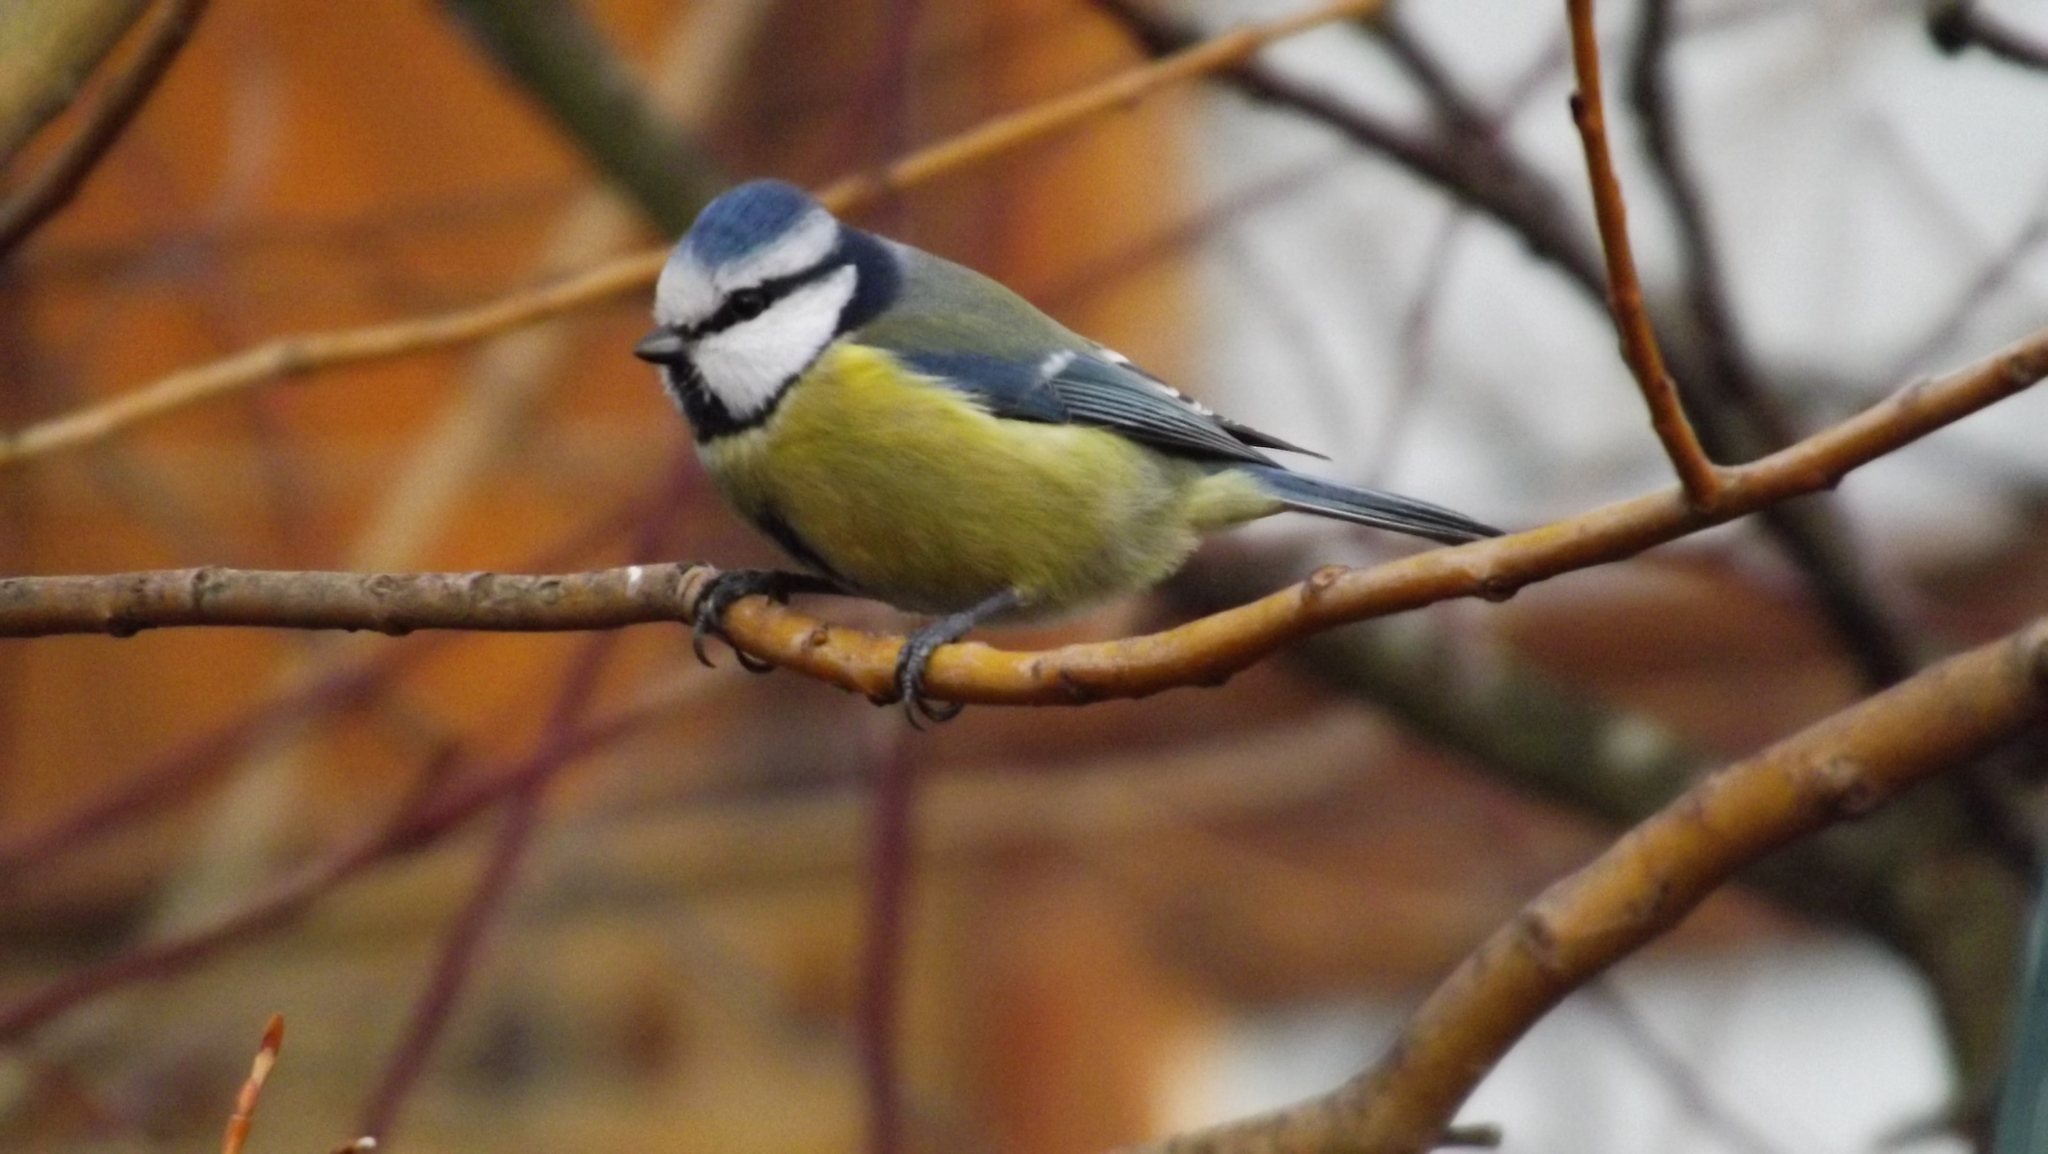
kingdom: Animalia
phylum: Chordata
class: Aves
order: Passeriformes
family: Paridae
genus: Cyanistes
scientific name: Cyanistes caeruleus
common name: Eurasian blue tit
